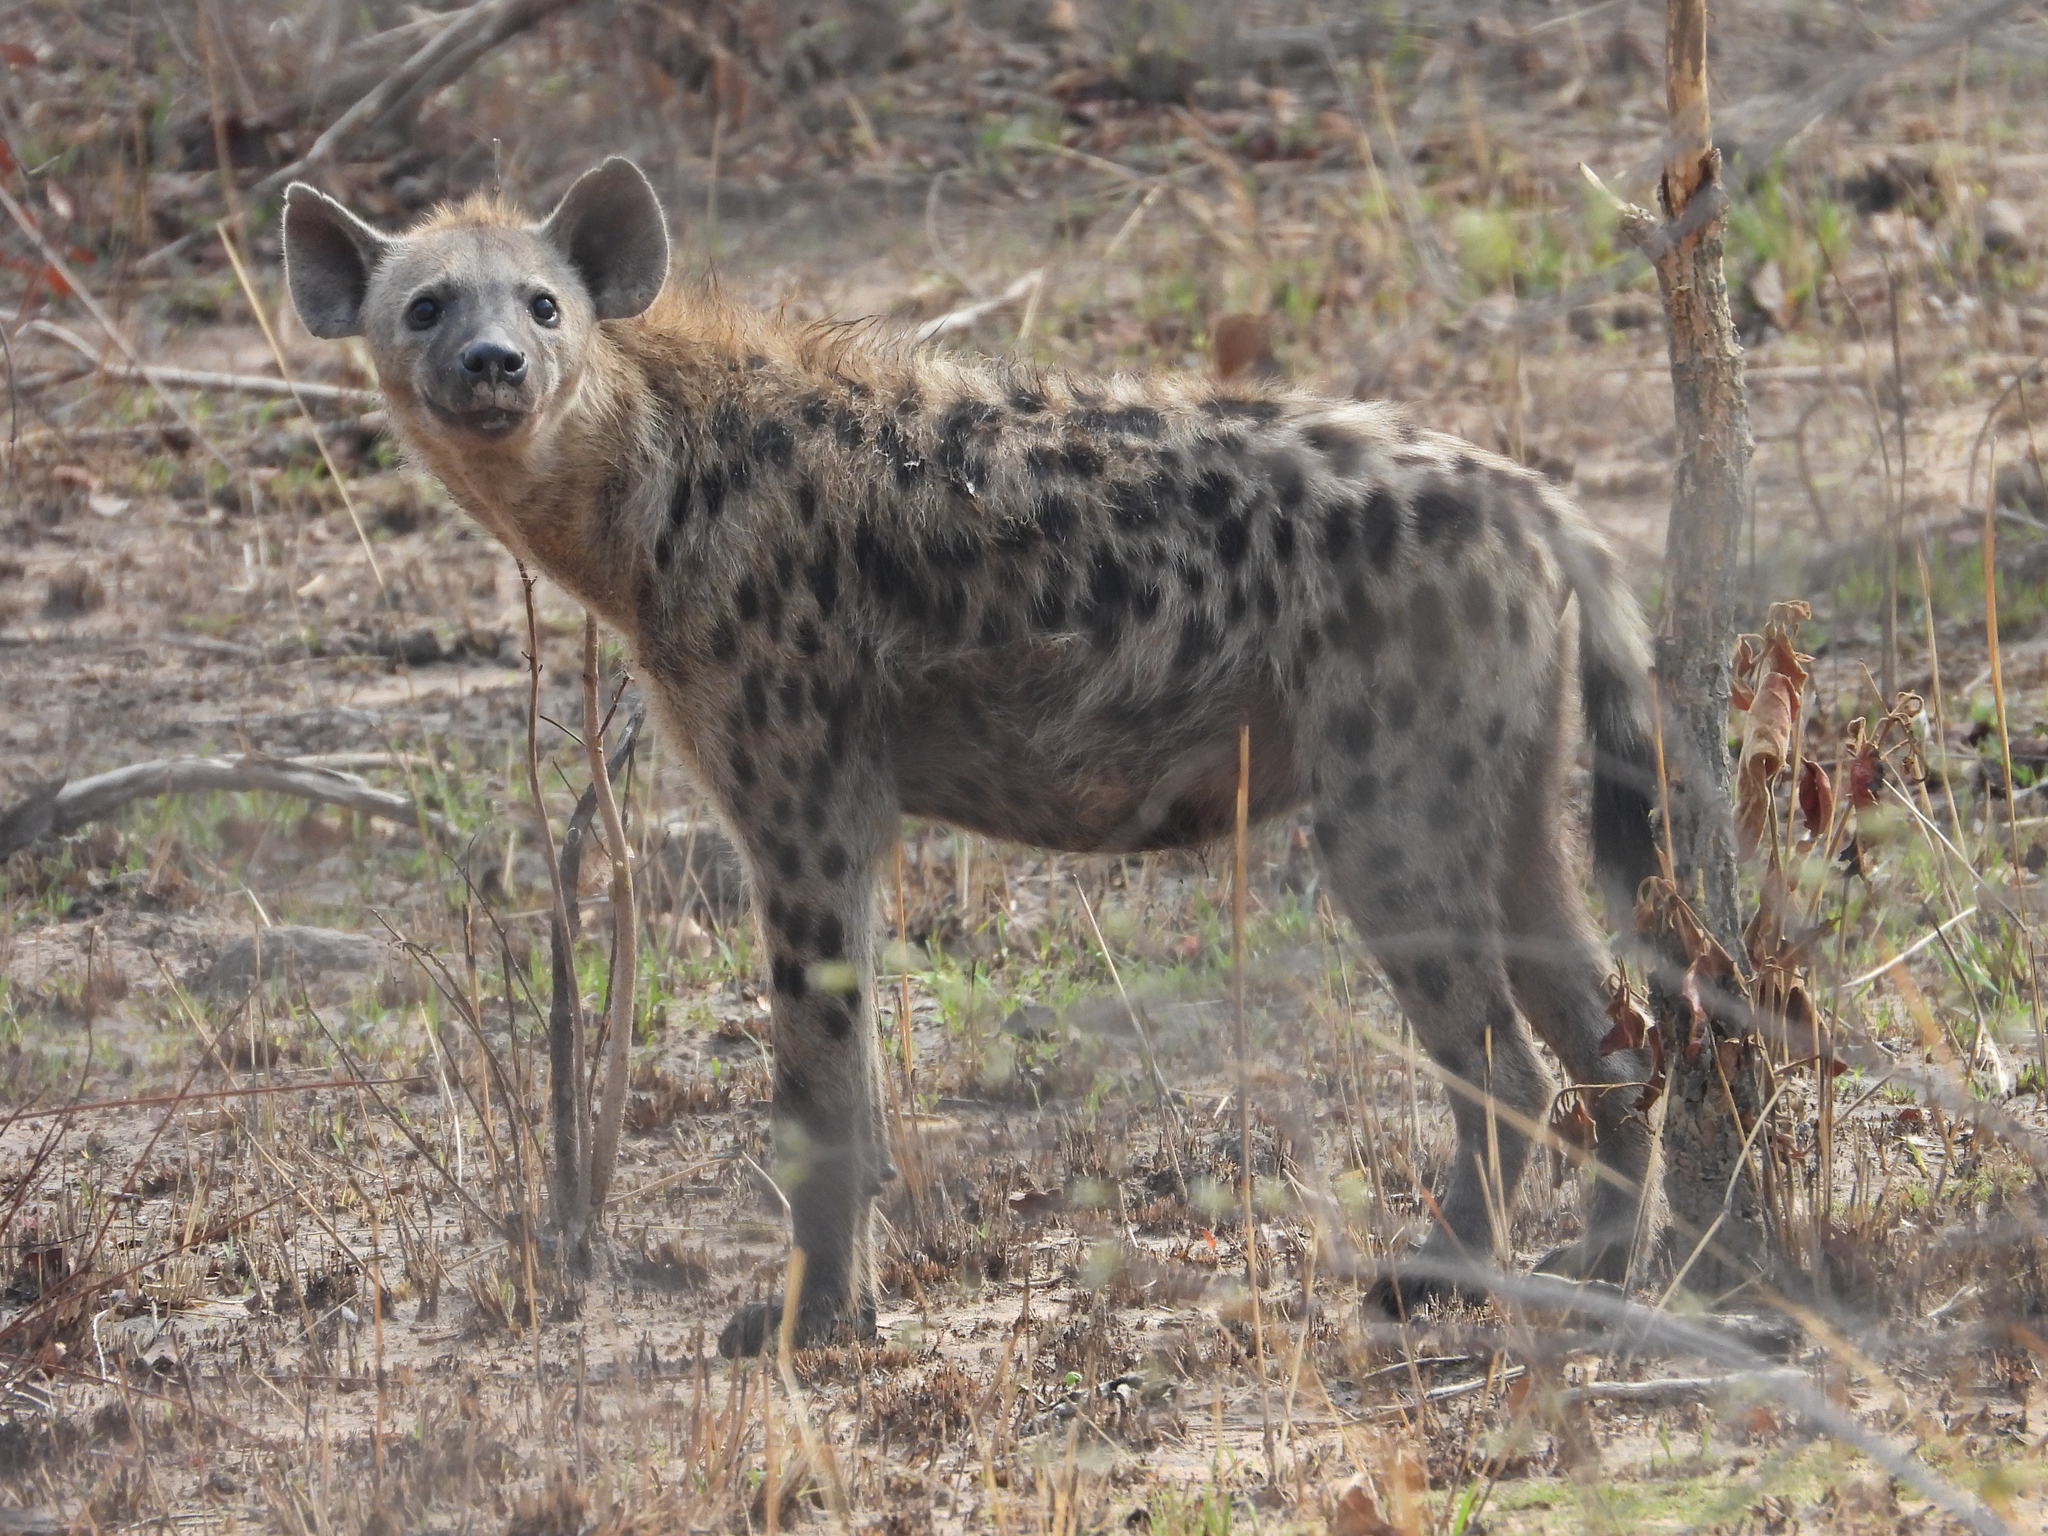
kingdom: Animalia
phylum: Chordata
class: Mammalia
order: Carnivora
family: Hyaenidae
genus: Crocuta
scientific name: Crocuta crocuta
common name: Spotted hyaena
